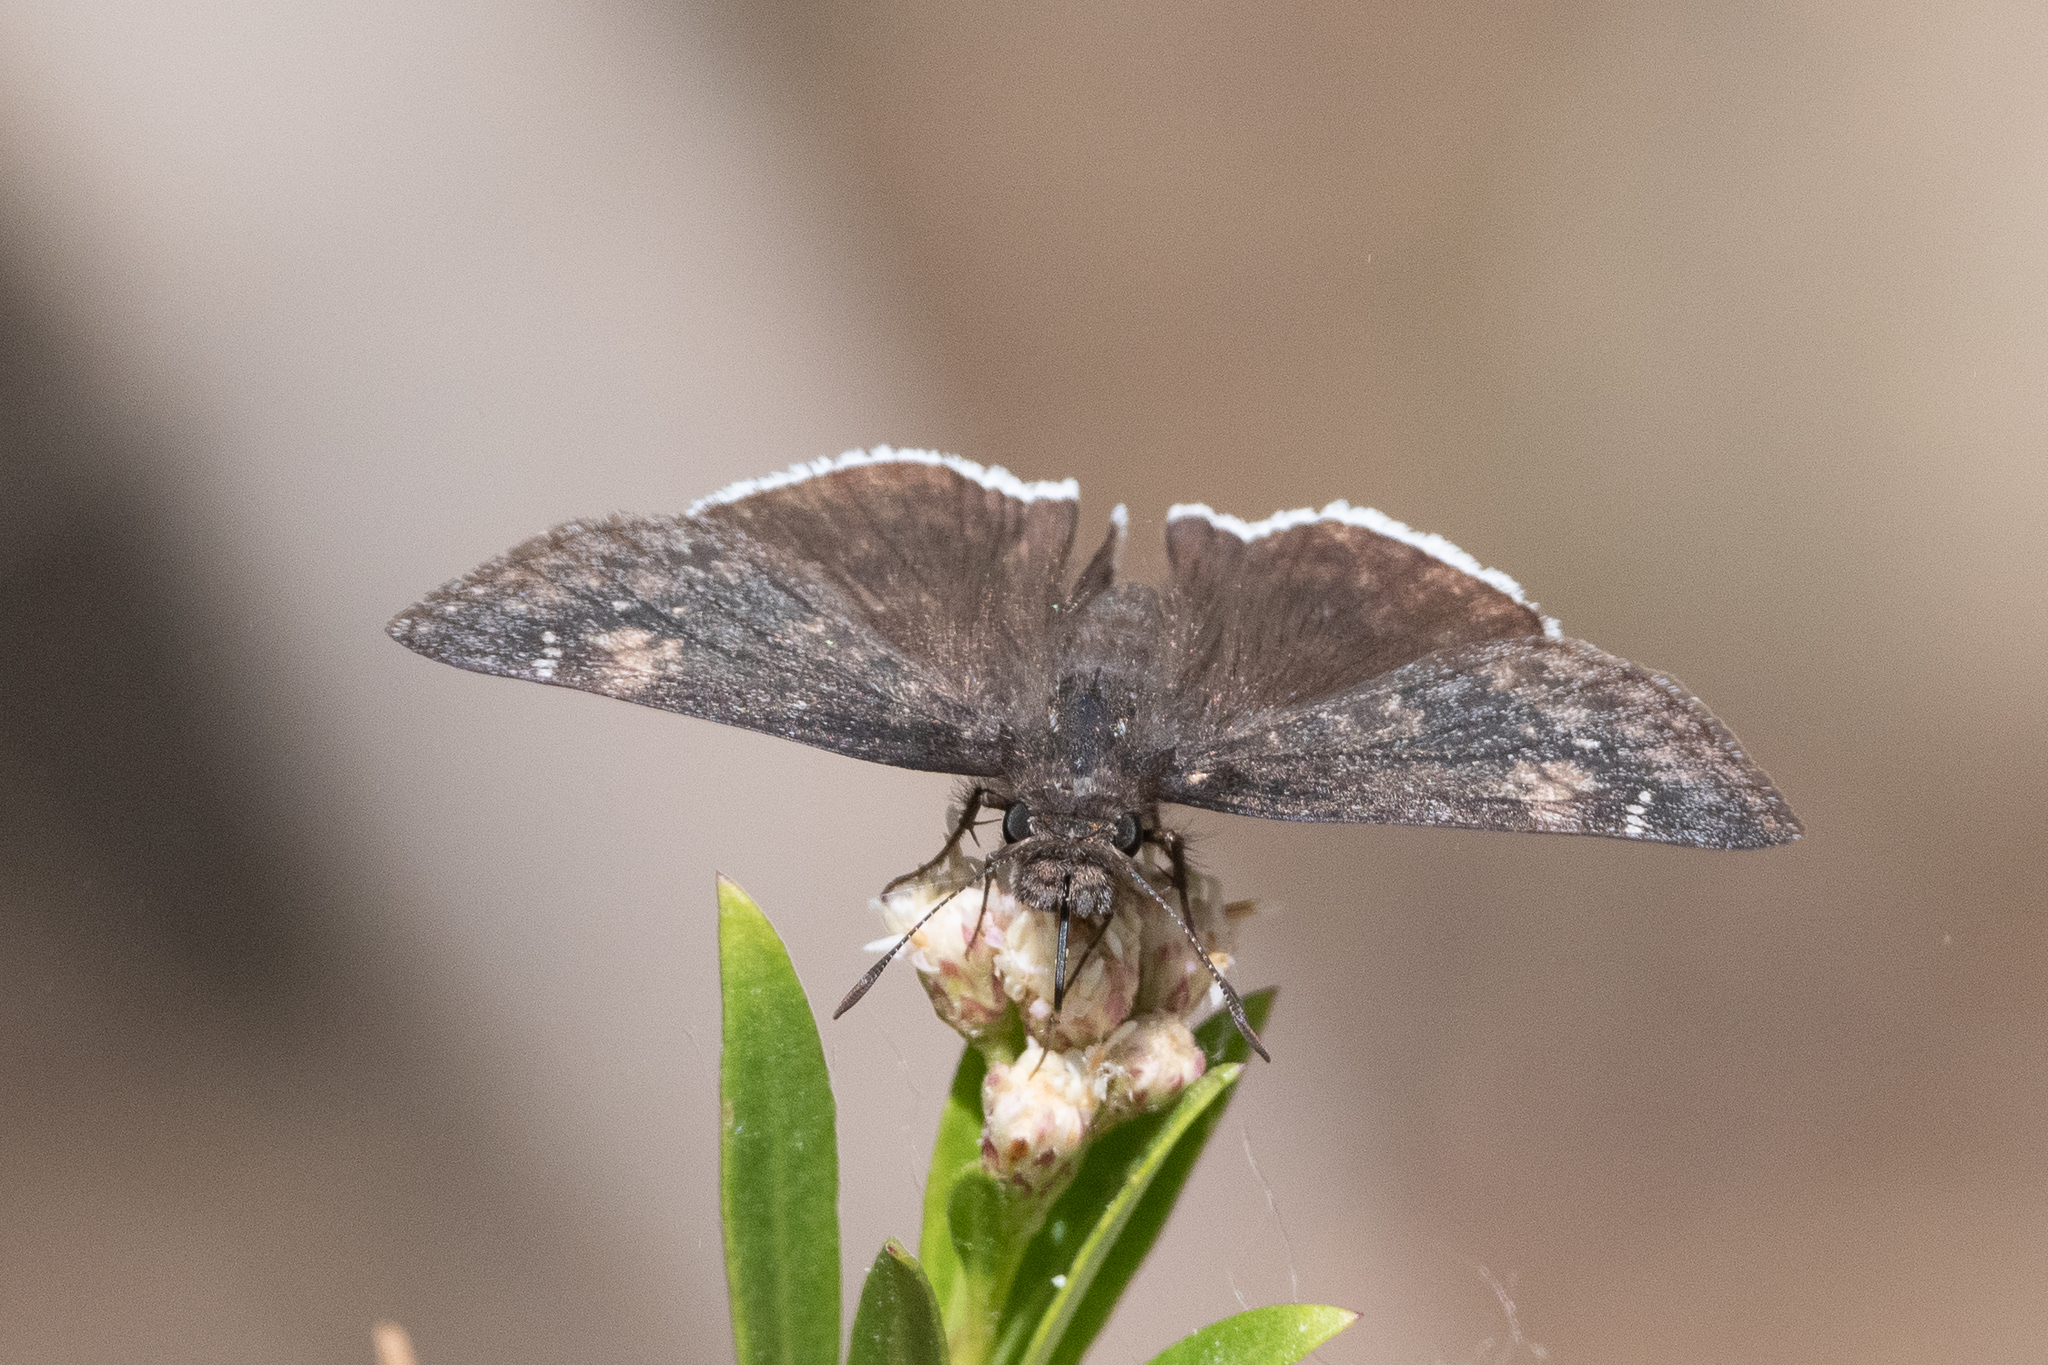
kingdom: Animalia
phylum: Arthropoda
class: Insecta
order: Lepidoptera
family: Hesperiidae
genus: Erynnis
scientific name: Erynnis funeralis
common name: Funereal duskywing
